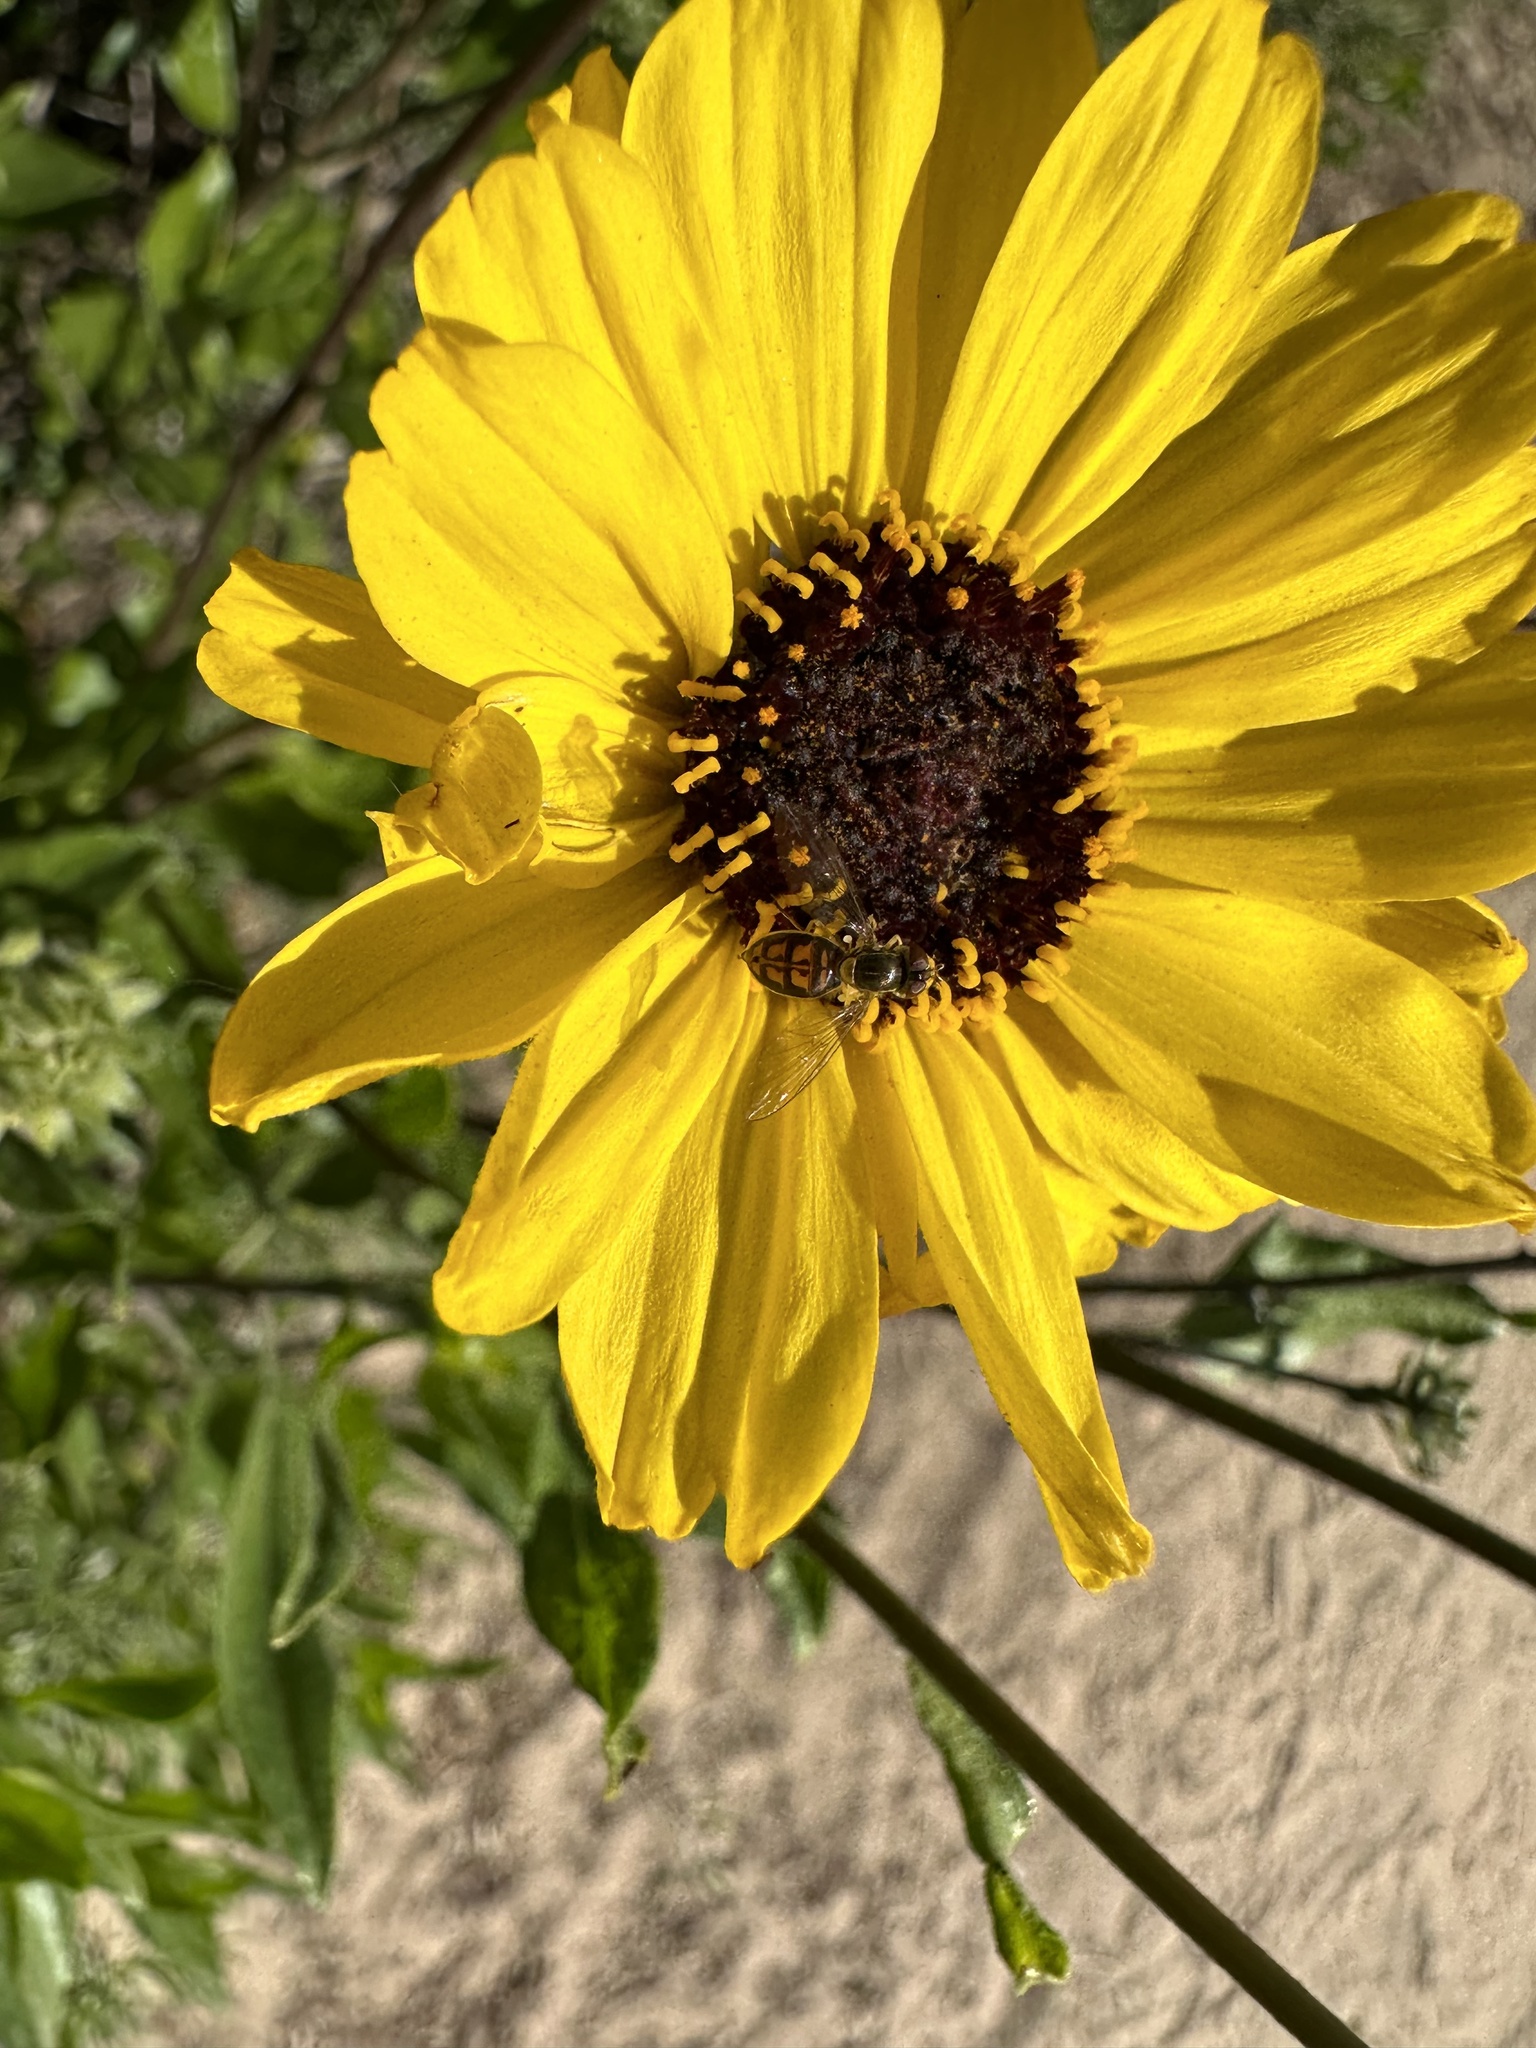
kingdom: Animalia
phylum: Arthropoda
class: Insecta
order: Diptera
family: Syrphidae
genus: Toxomerus
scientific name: Toxomerus marginatus
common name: Syrphid fly
